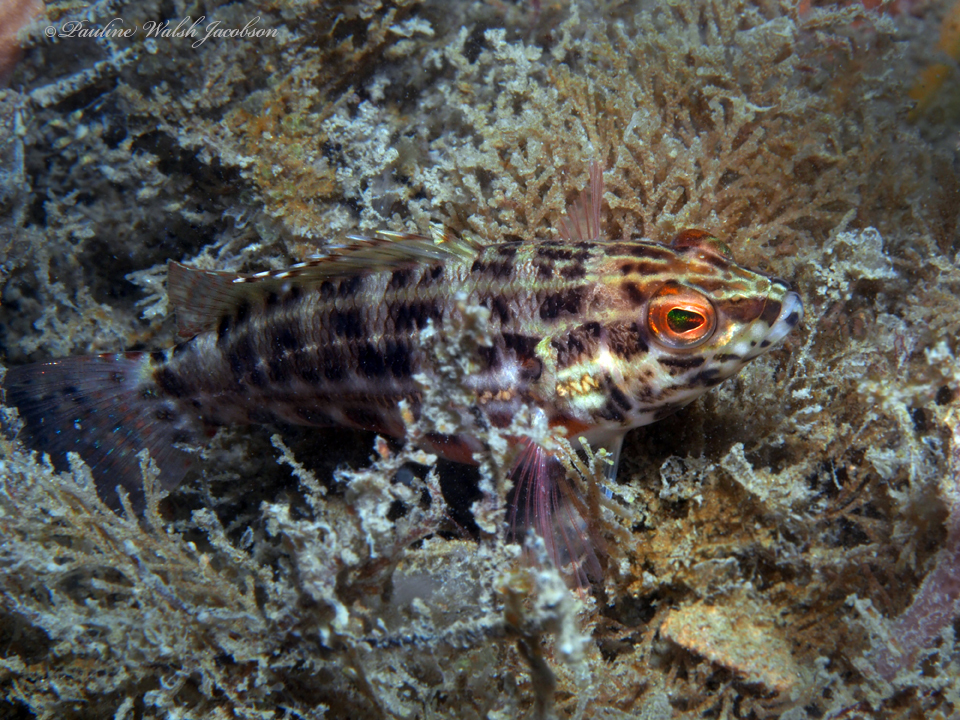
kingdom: Animalia
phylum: Chordata
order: Perciformes
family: Serranidae
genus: Serranus
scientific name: Serranus baldwini
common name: Lantern bass
